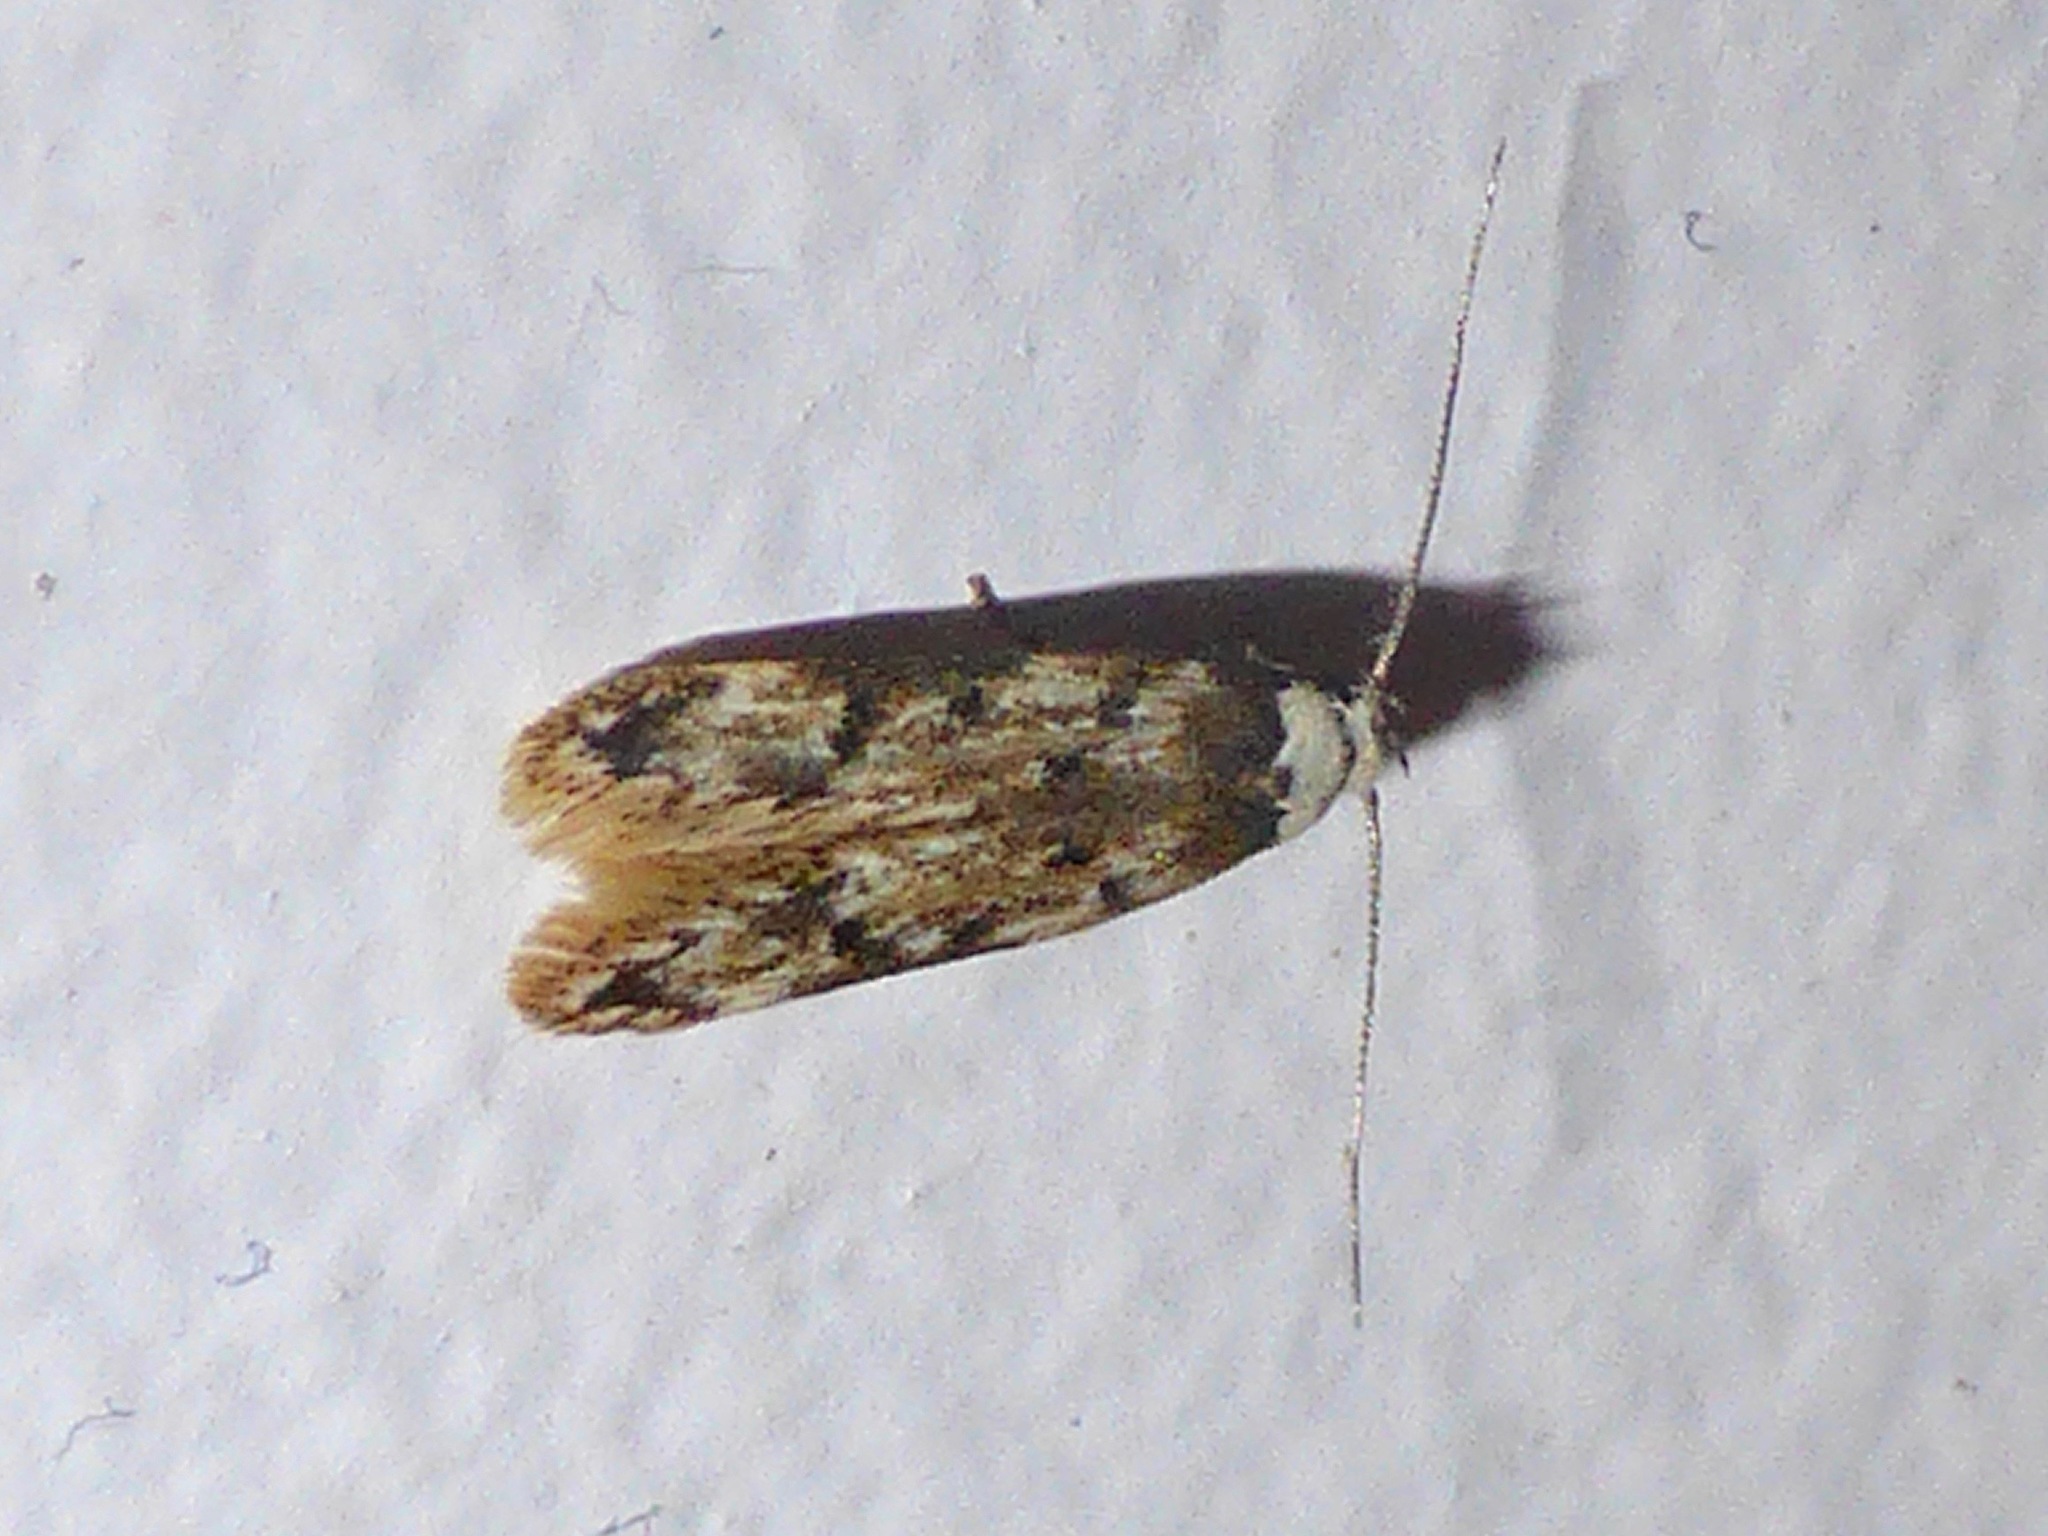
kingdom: Animalia
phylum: Arthropoda
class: Insecta
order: Lepidoptera
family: Oecophoridae
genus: Endrosis
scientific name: Endrosis sarcitrella
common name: White-shouldered house moth
